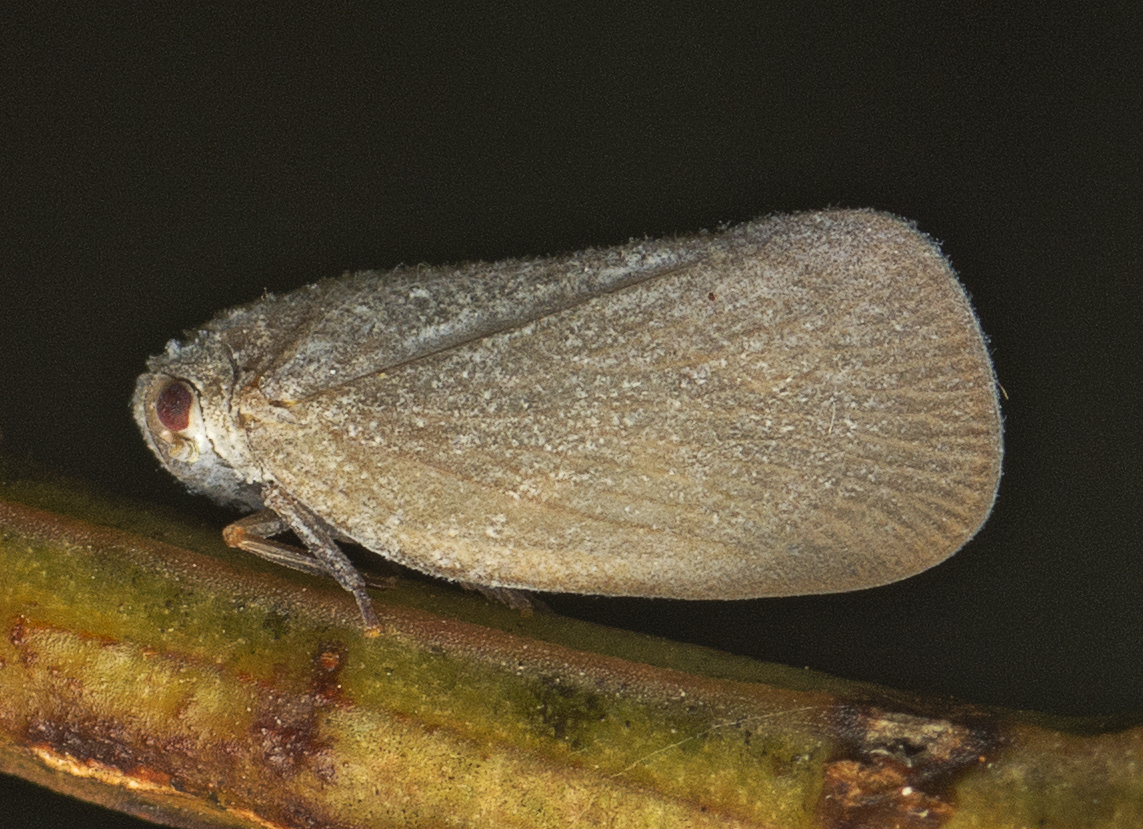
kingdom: Animalia
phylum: Arthropoda
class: Insecta
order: Hemiptera
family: Flatidae
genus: Anzora
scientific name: Anzora unicolor
